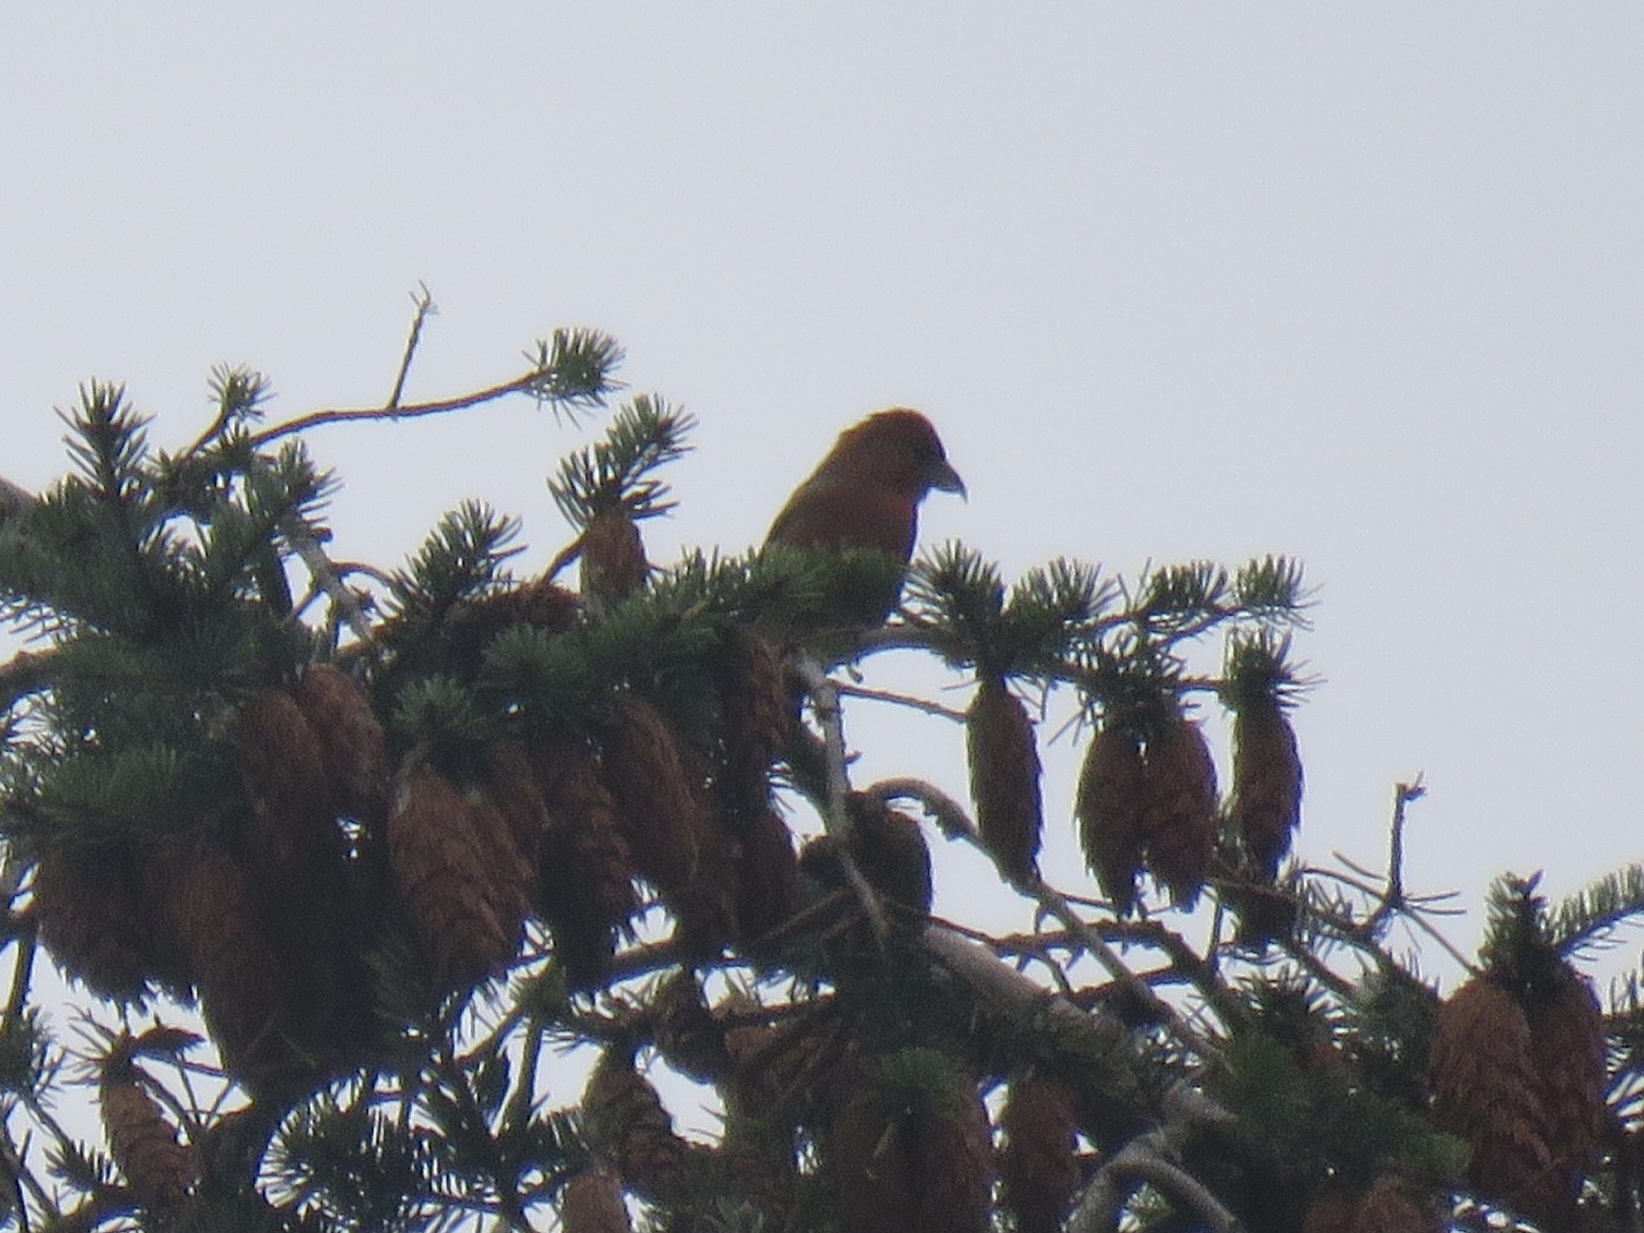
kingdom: Animalia
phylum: Chordata
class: Aves
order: Passeriformes
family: Fringillidae
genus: Loxia
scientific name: Loxia curvirostra
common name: Red crossbill
